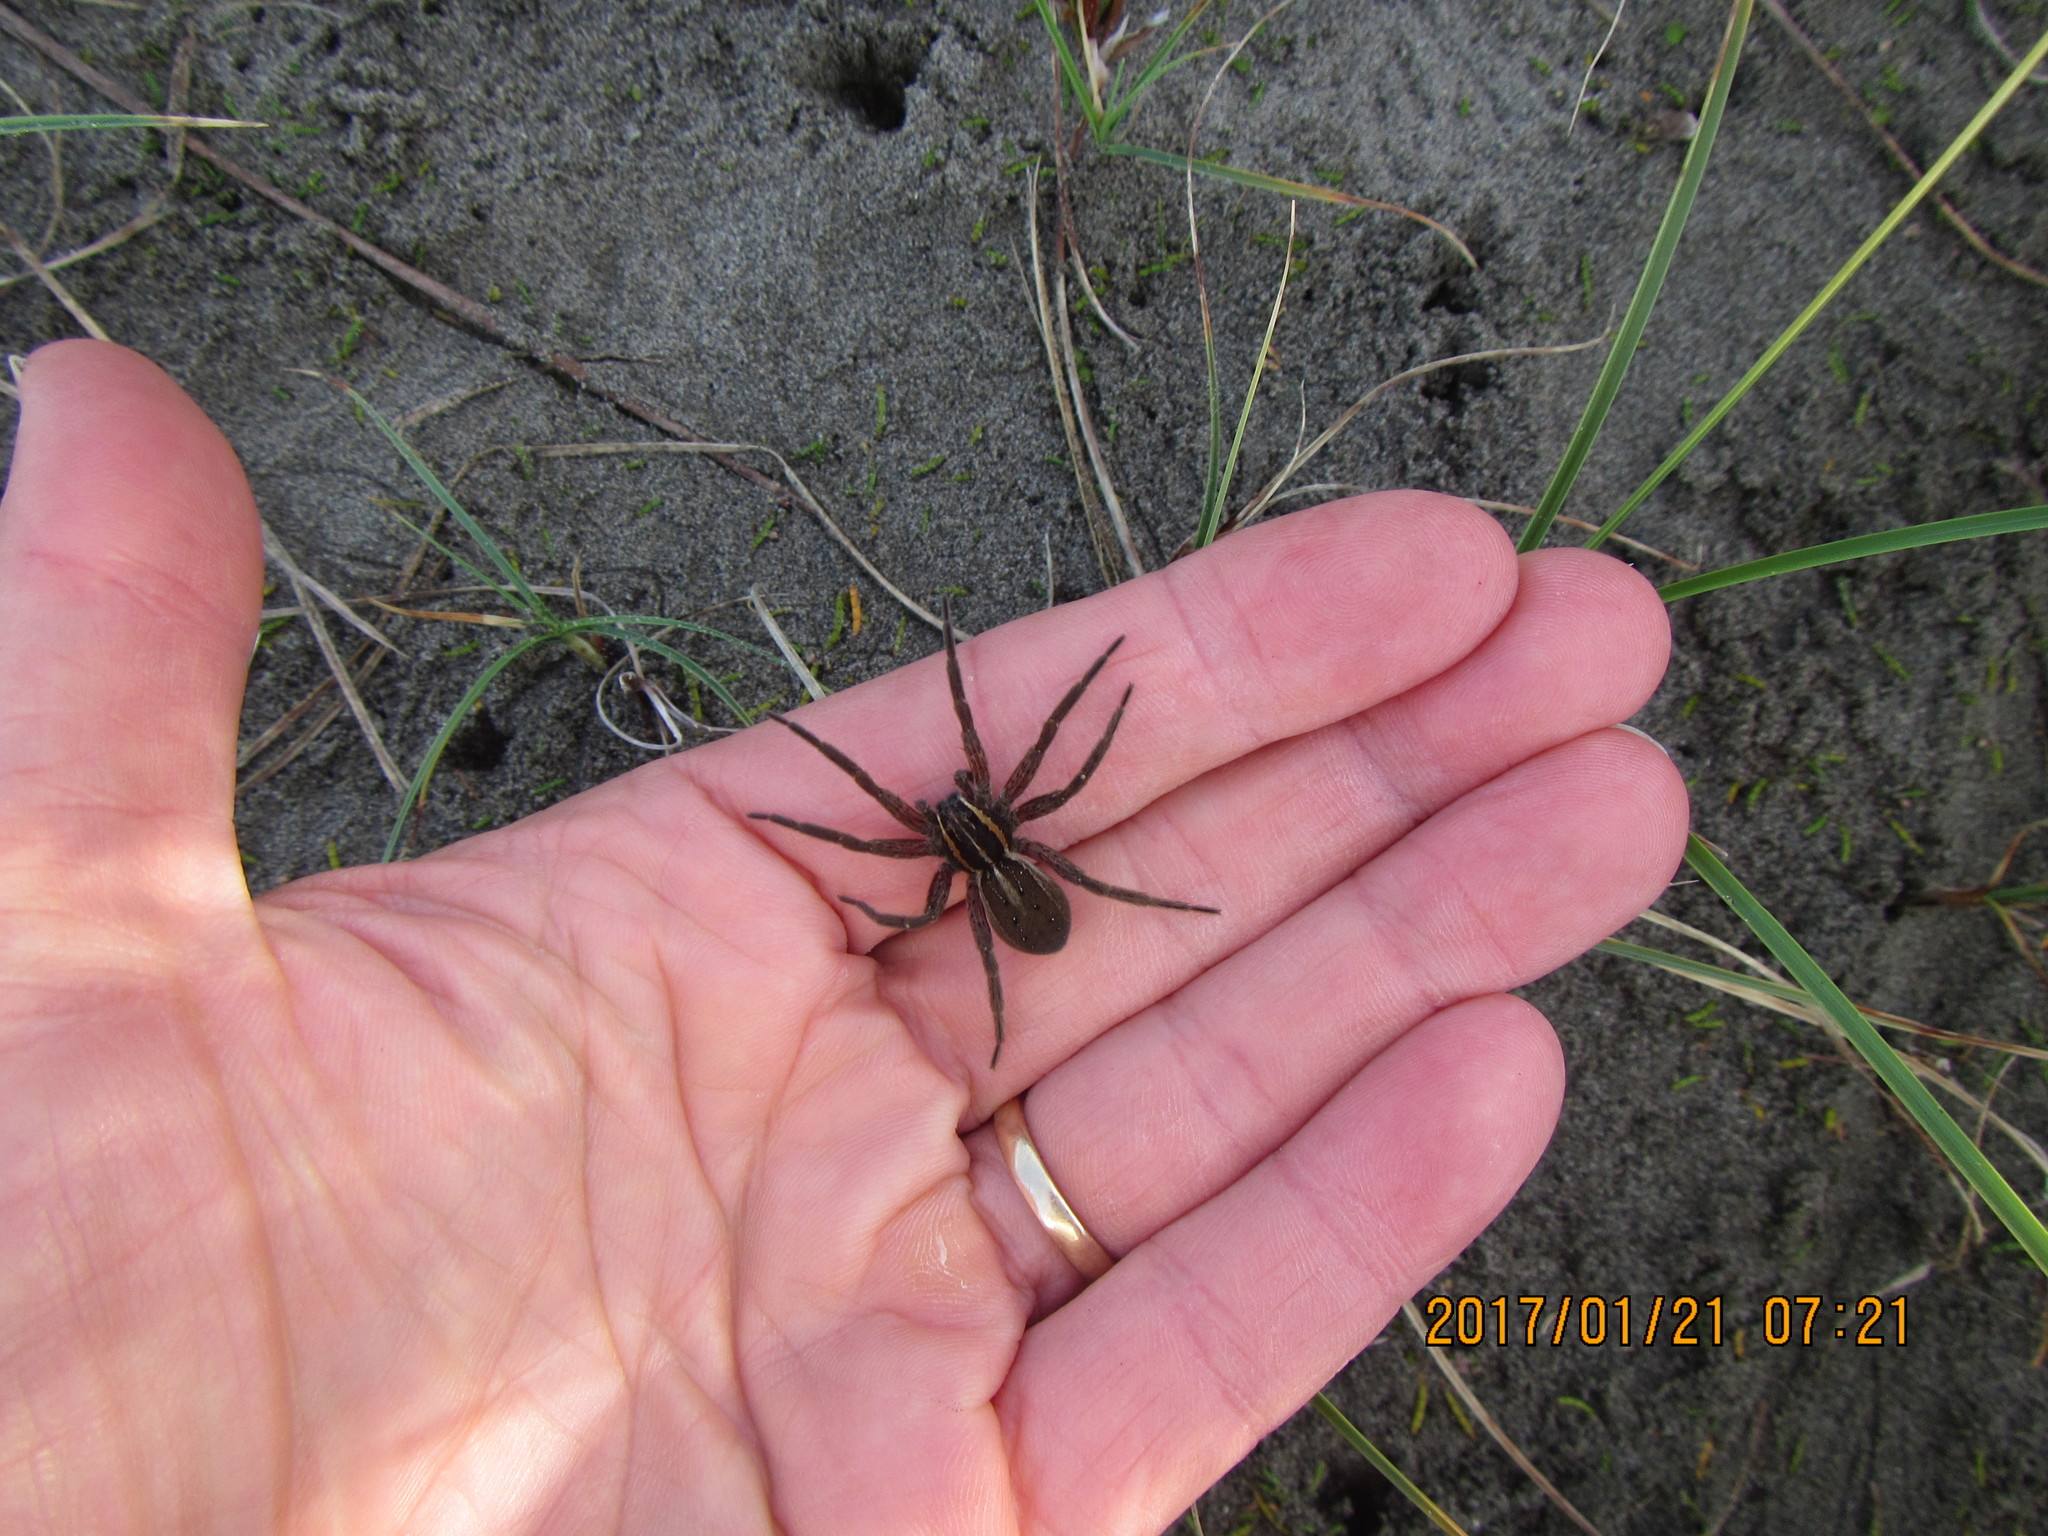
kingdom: Animalia
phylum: Arthropoda
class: Arachnida
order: Araneae
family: Pisauridae
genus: Dolomedes
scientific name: Dolomedes minor
